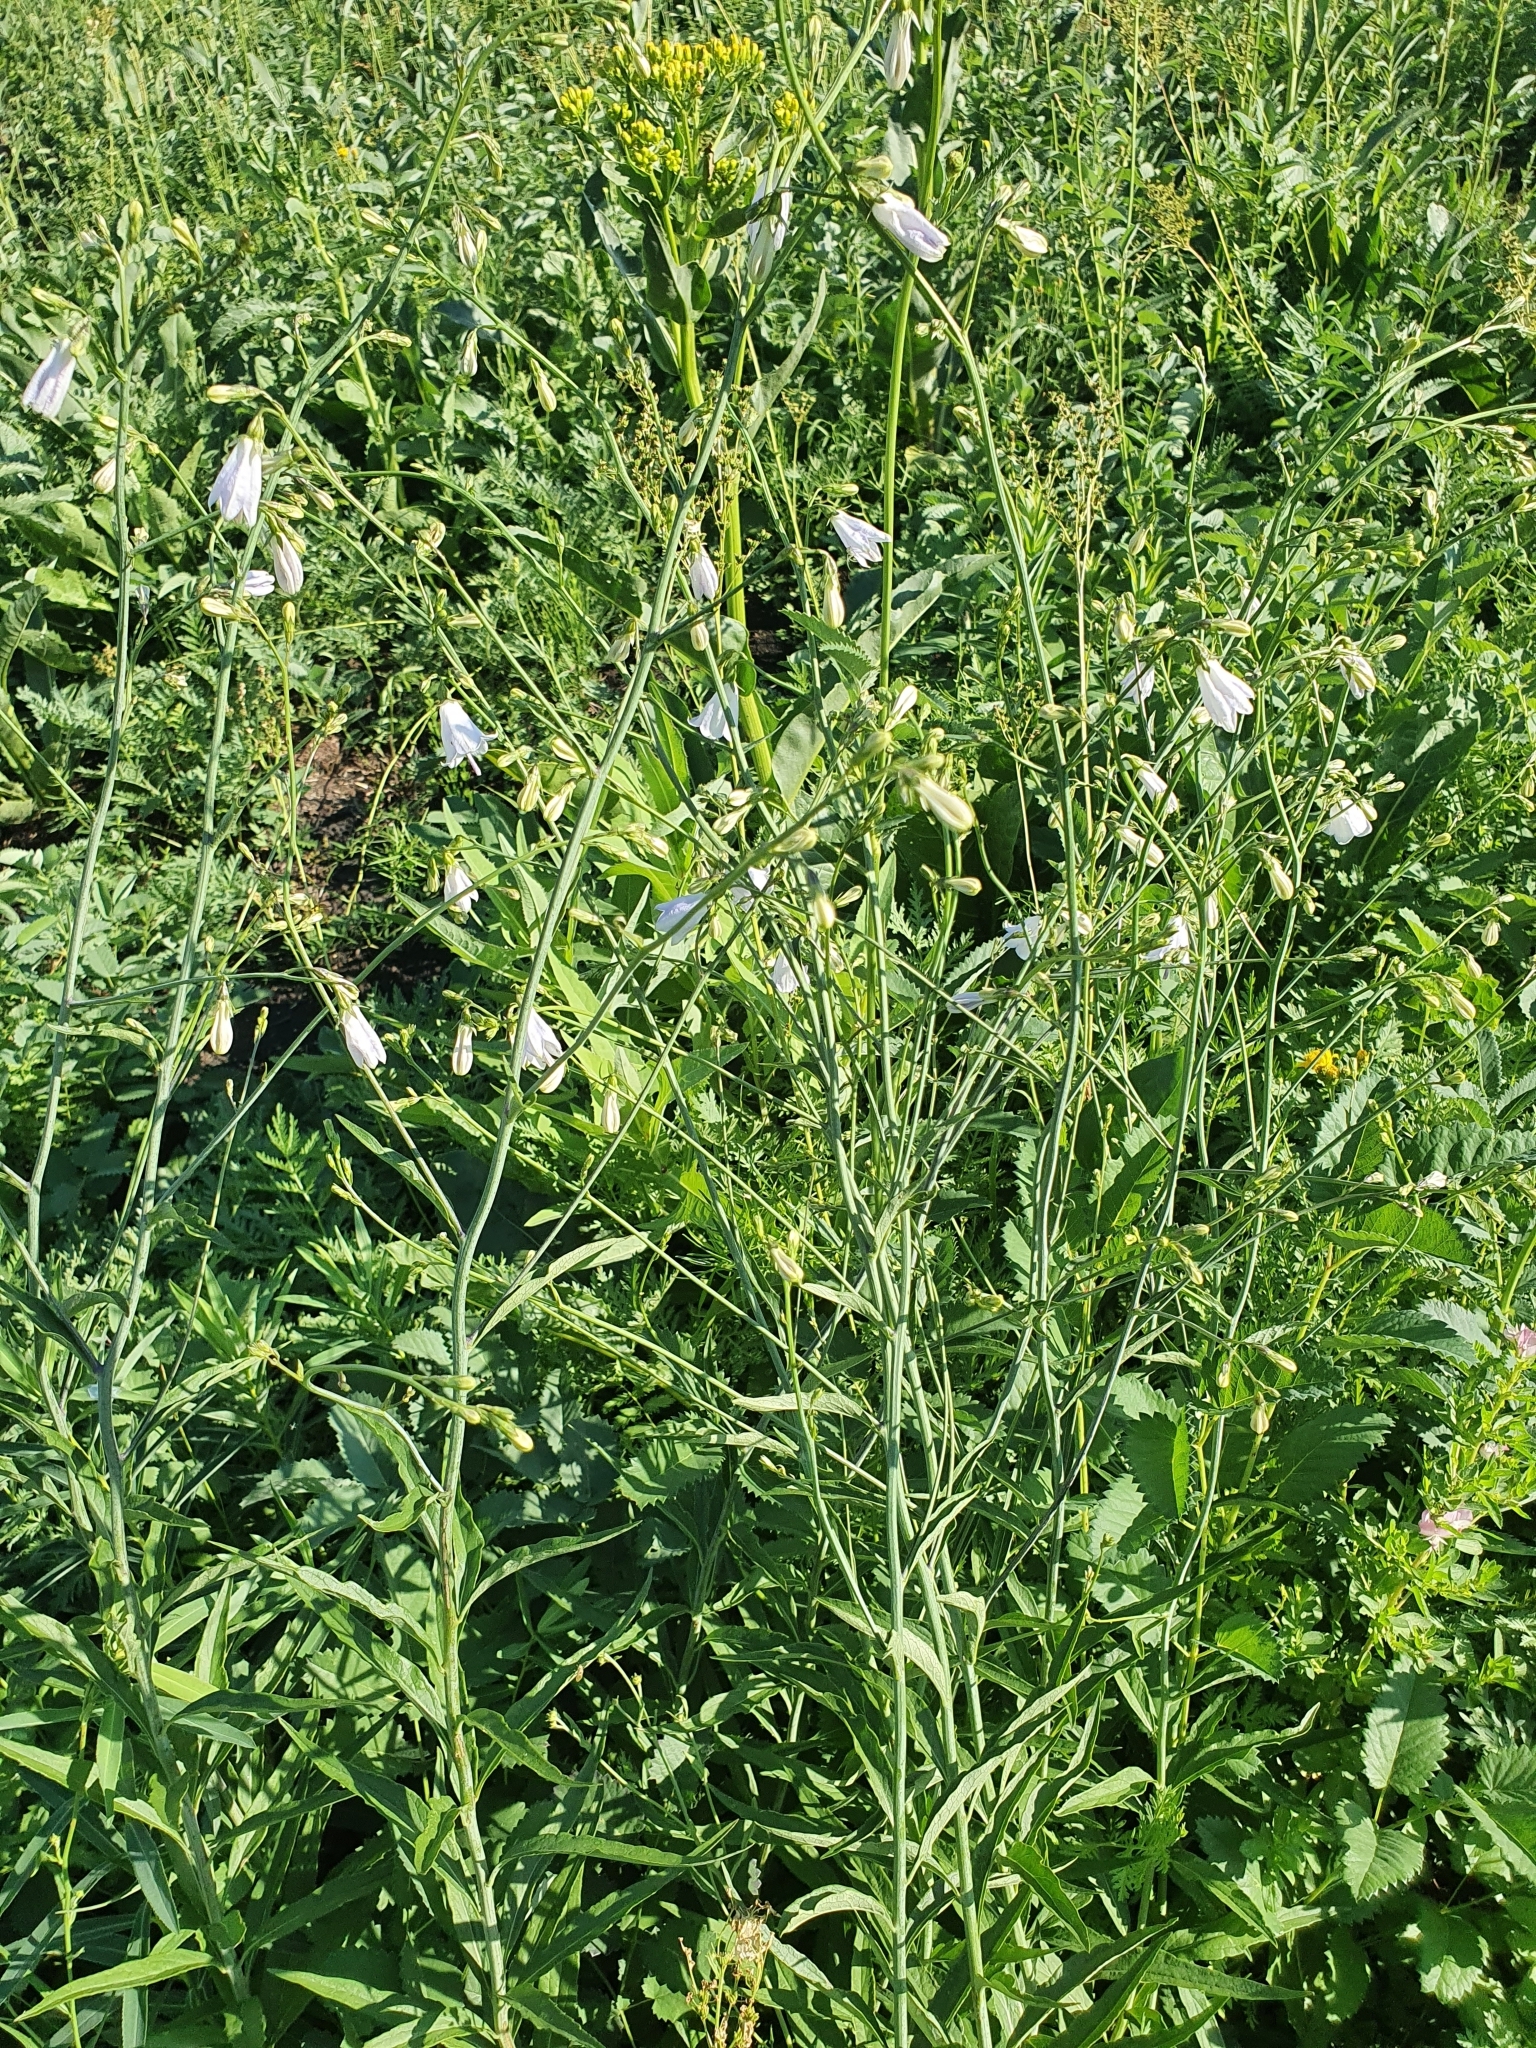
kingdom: Plantae
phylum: Tracheophyta
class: Magnoliopsida
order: Asterales
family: Campanulaceae
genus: Adenophora
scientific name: Adenophora liliifolia
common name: Lilyleaf ladybells
